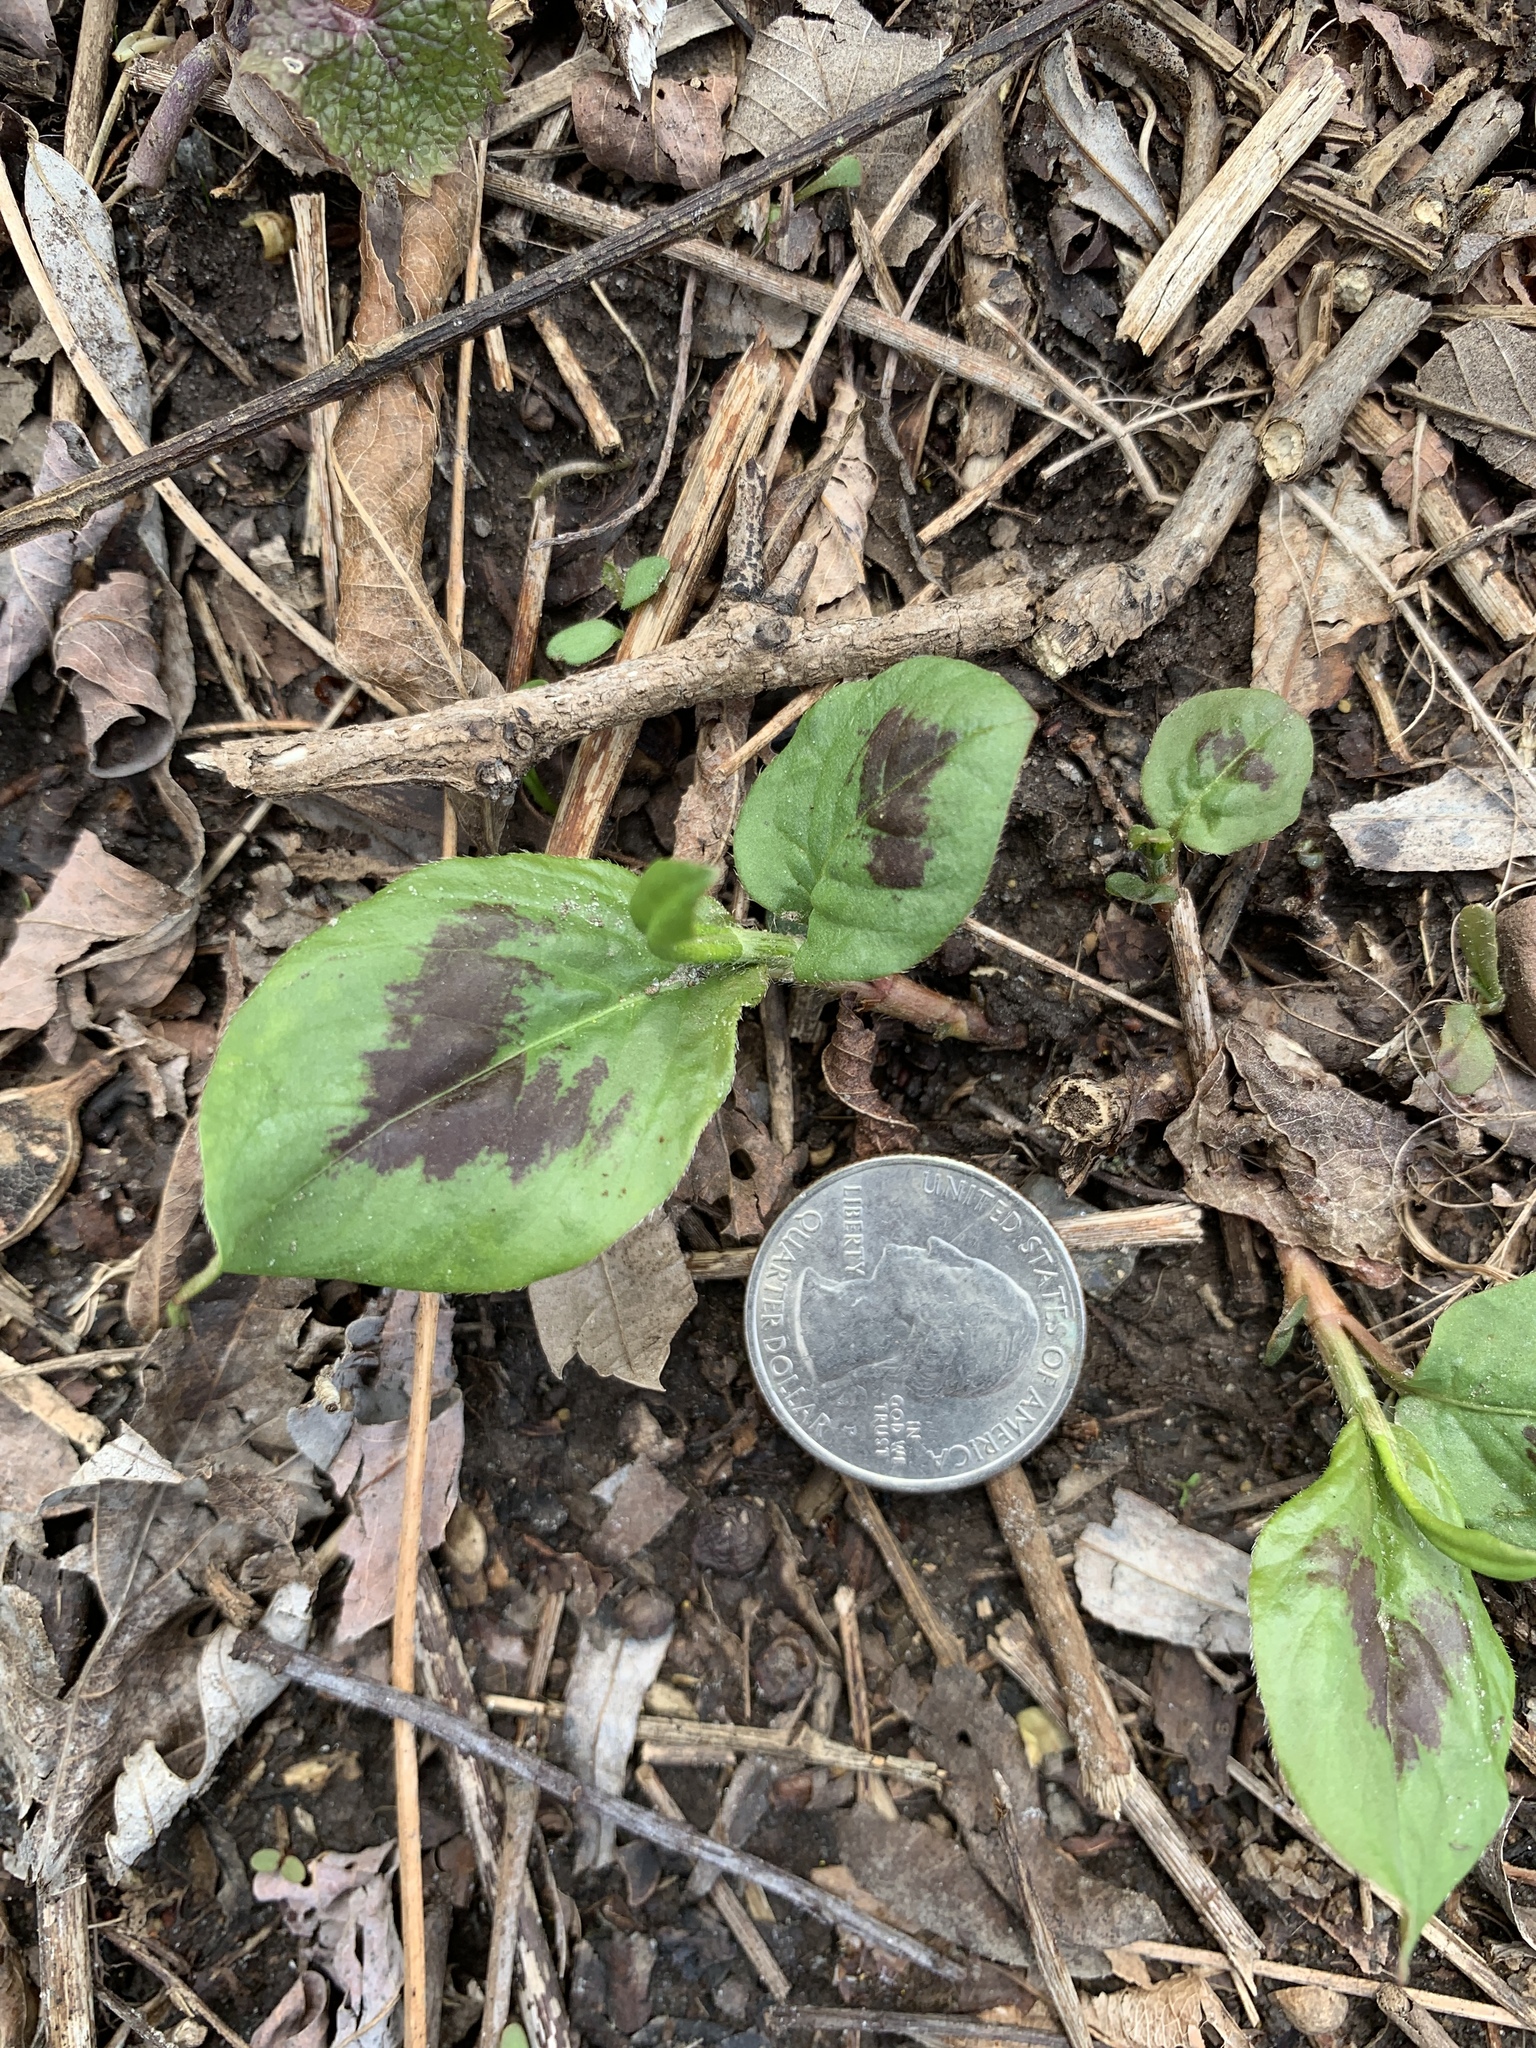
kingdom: Plantae
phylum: Tracheophyta
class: Magnoliopsida
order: Caryophyllales
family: Polygonaceae
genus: Persicaria
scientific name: Persicaria virginiana
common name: Jumpseed
